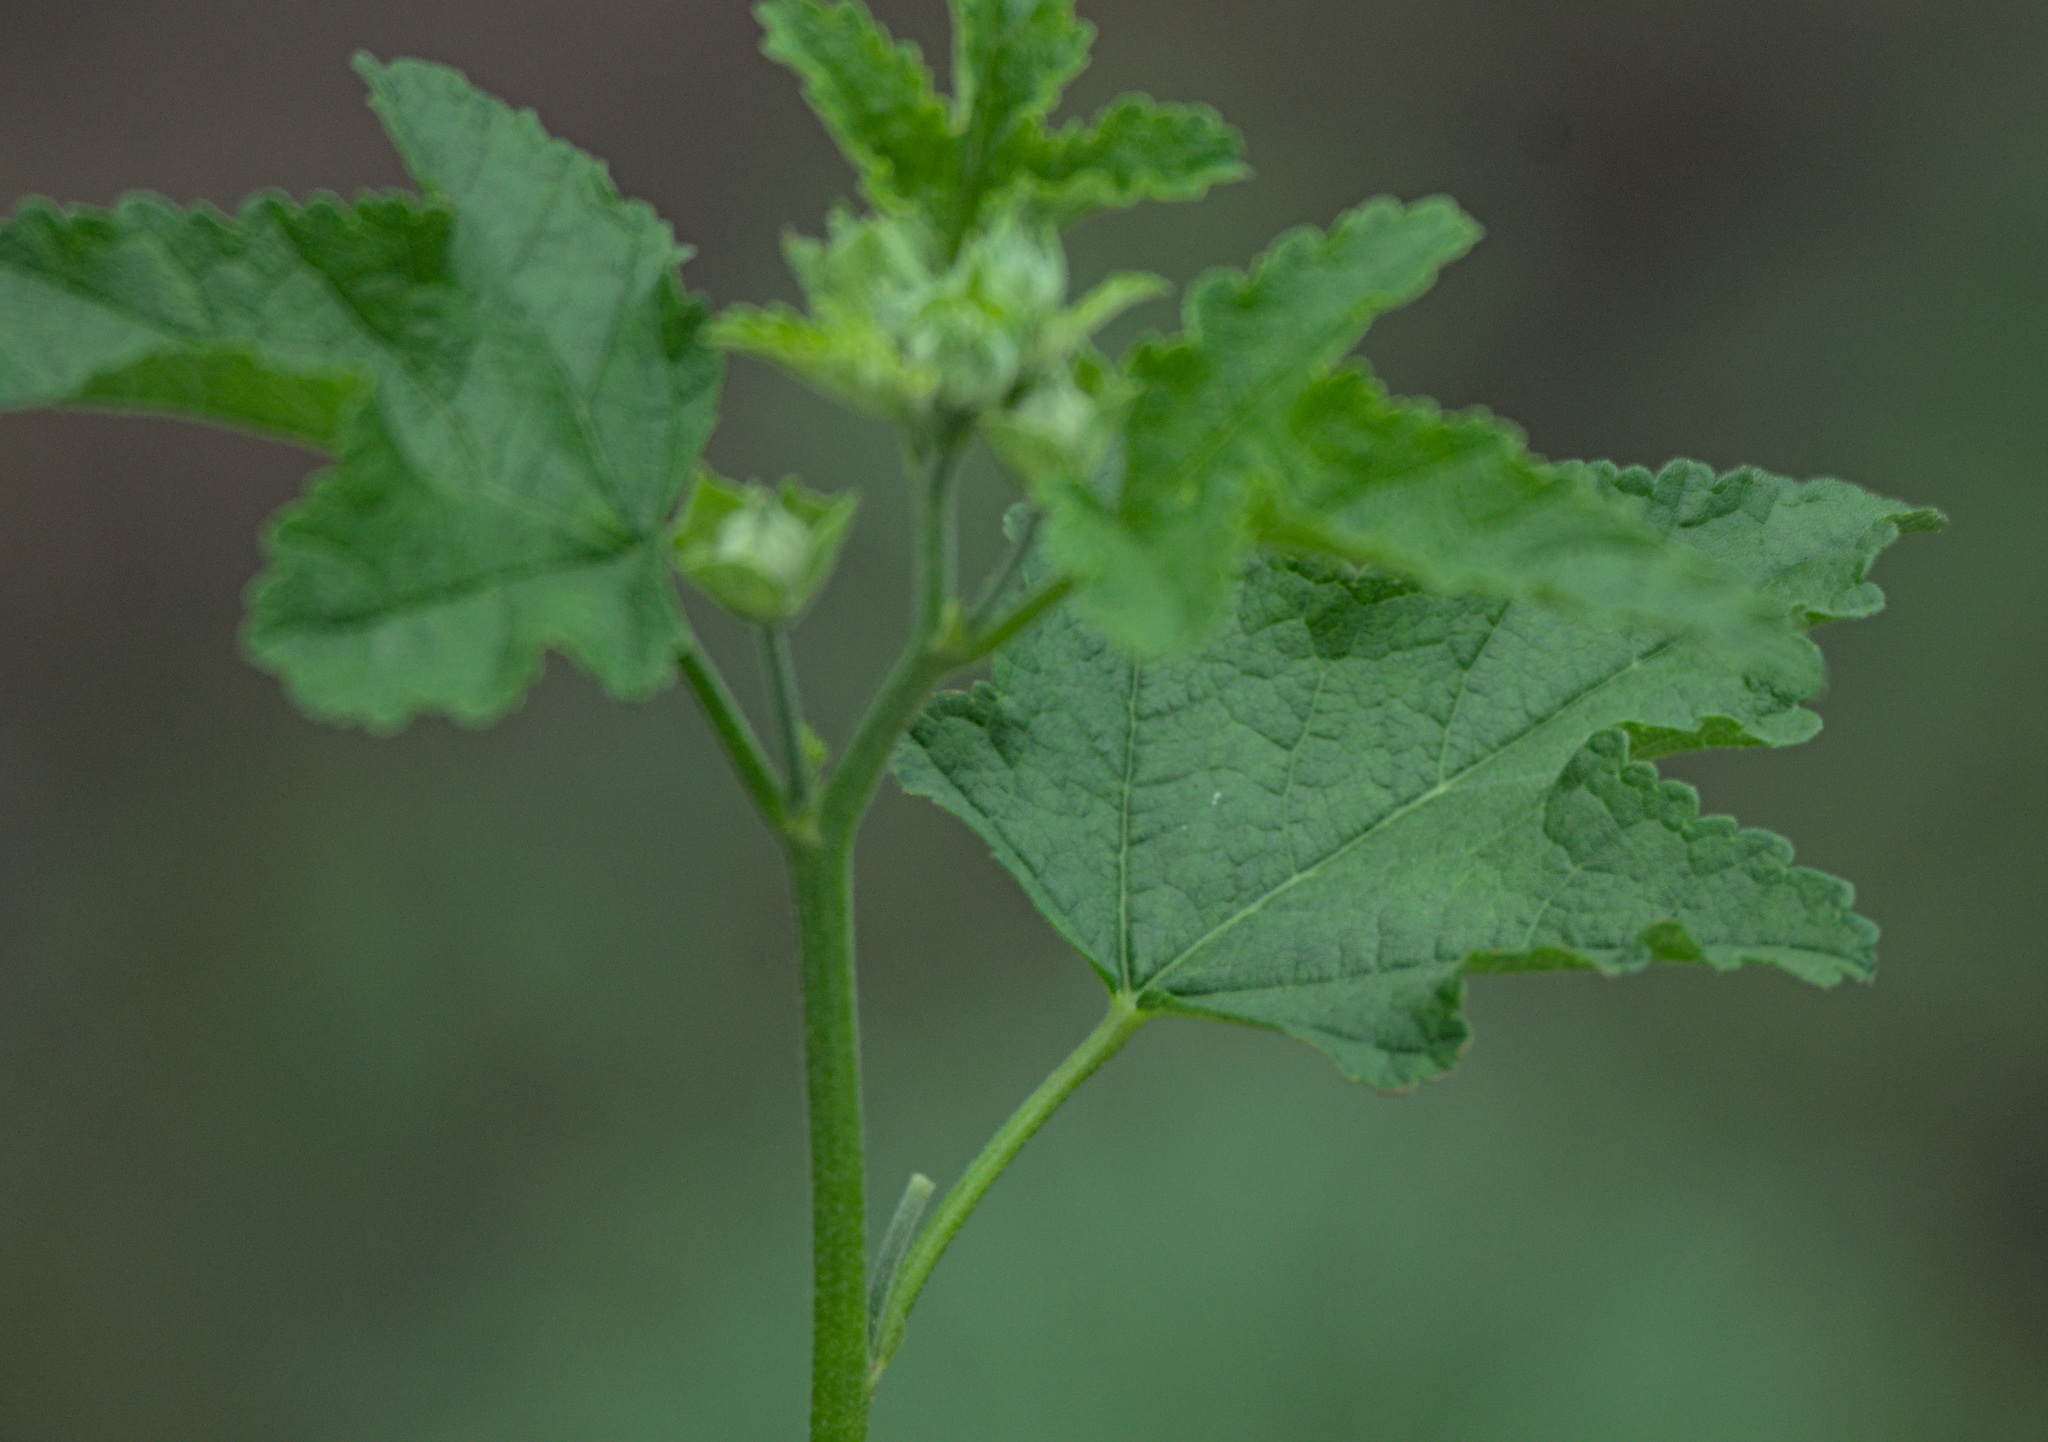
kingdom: Plantae
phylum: Tracheophyta
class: Magnoliopsida
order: Malvales
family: Malvaceae
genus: Malva
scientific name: Malva thuringiaca
